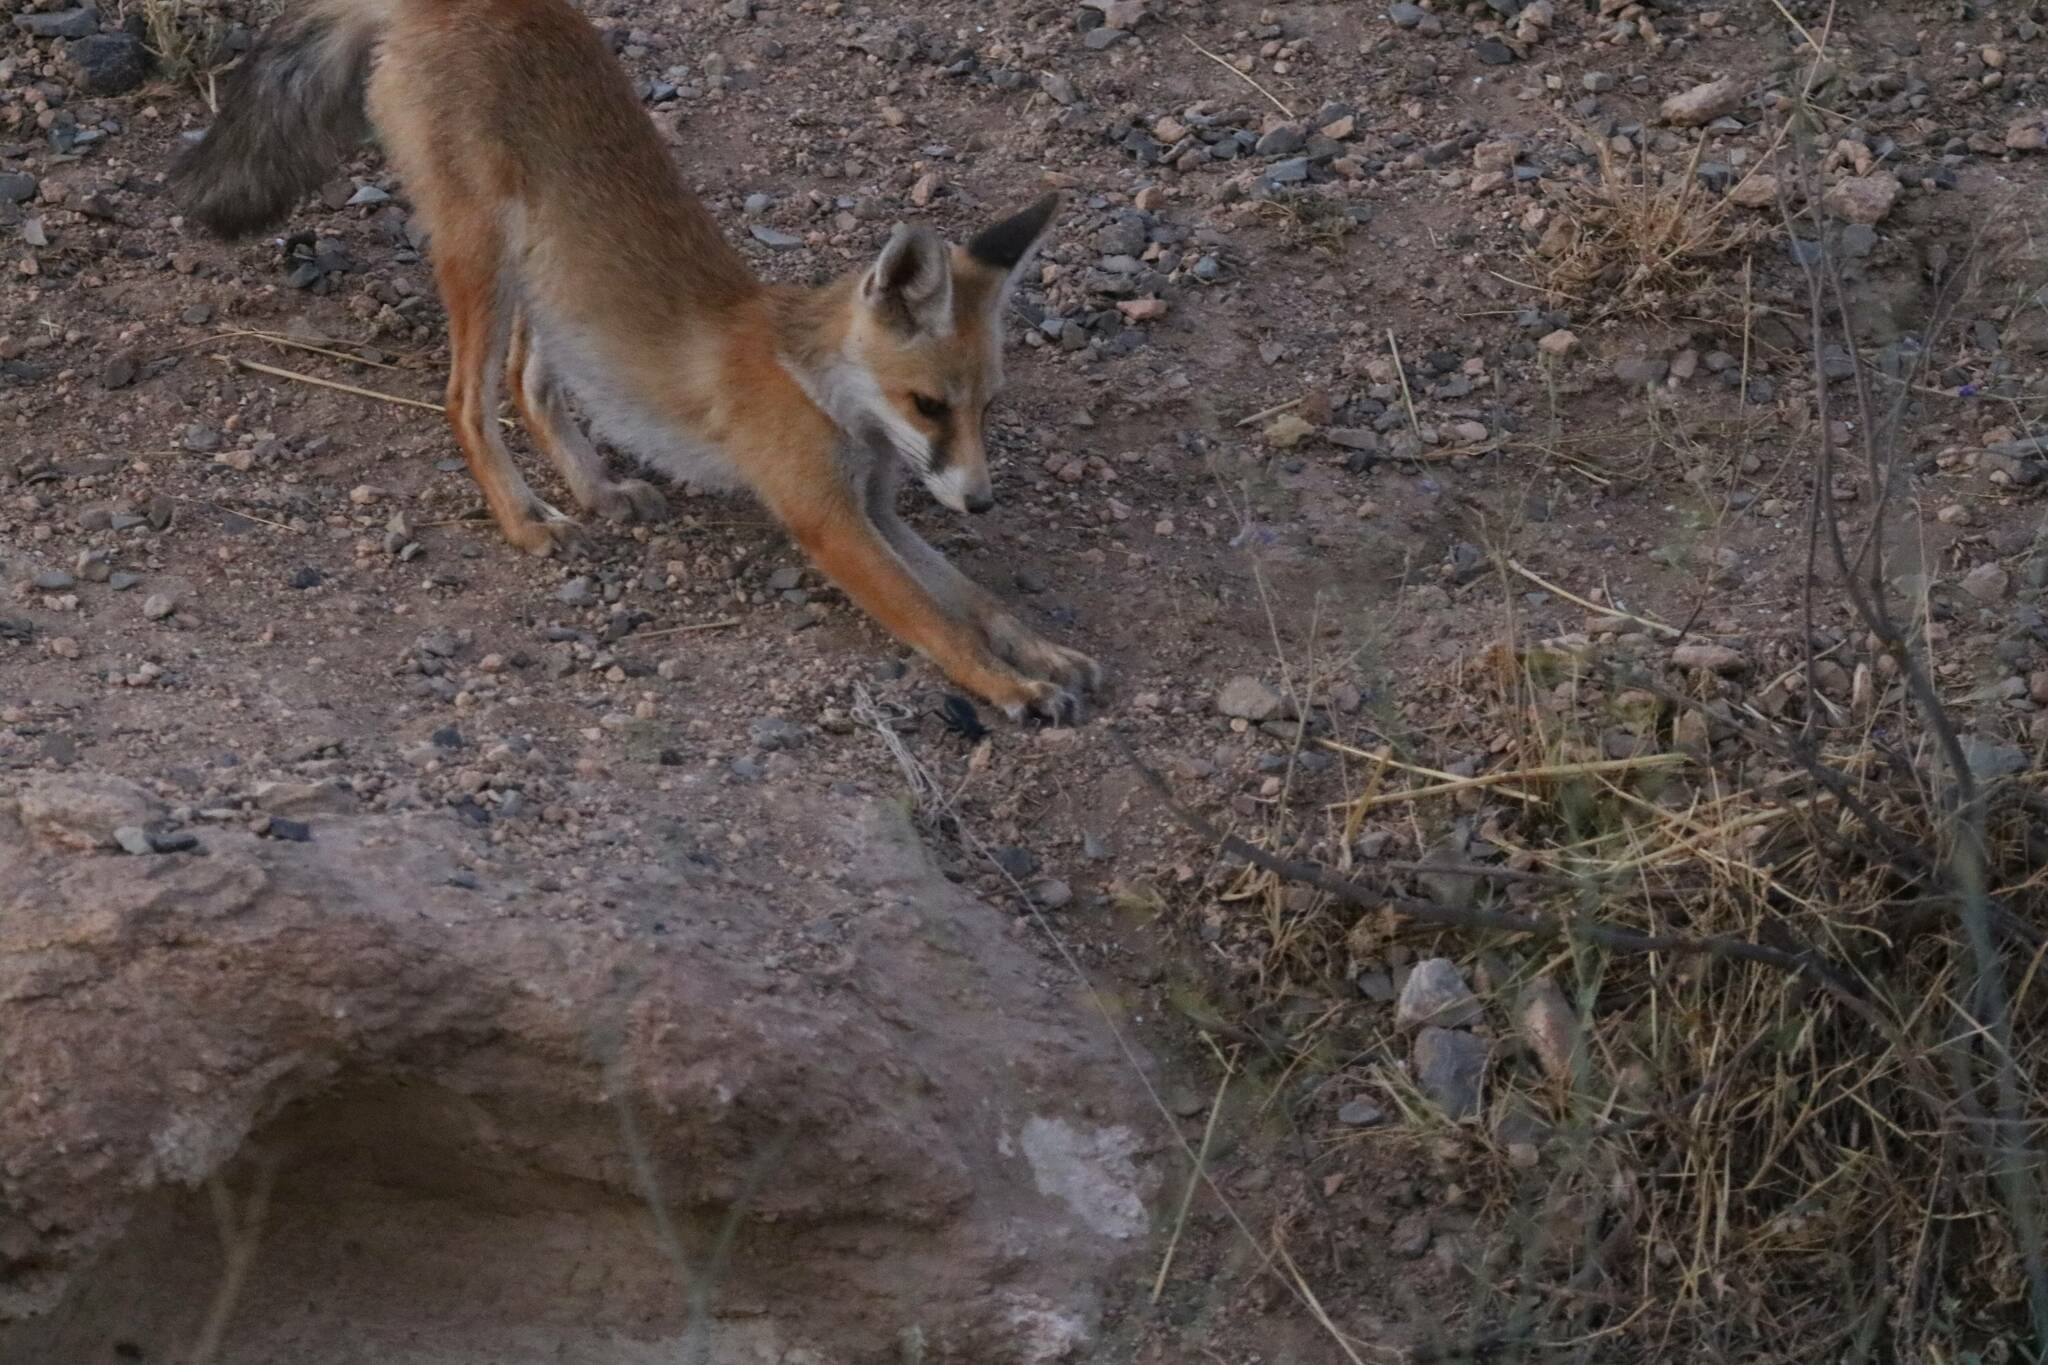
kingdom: Animalia
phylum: Chordata
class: Mammalia
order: Carnivora
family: Canidae
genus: Vulpes
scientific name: Vulpes vulpes
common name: Red fox
